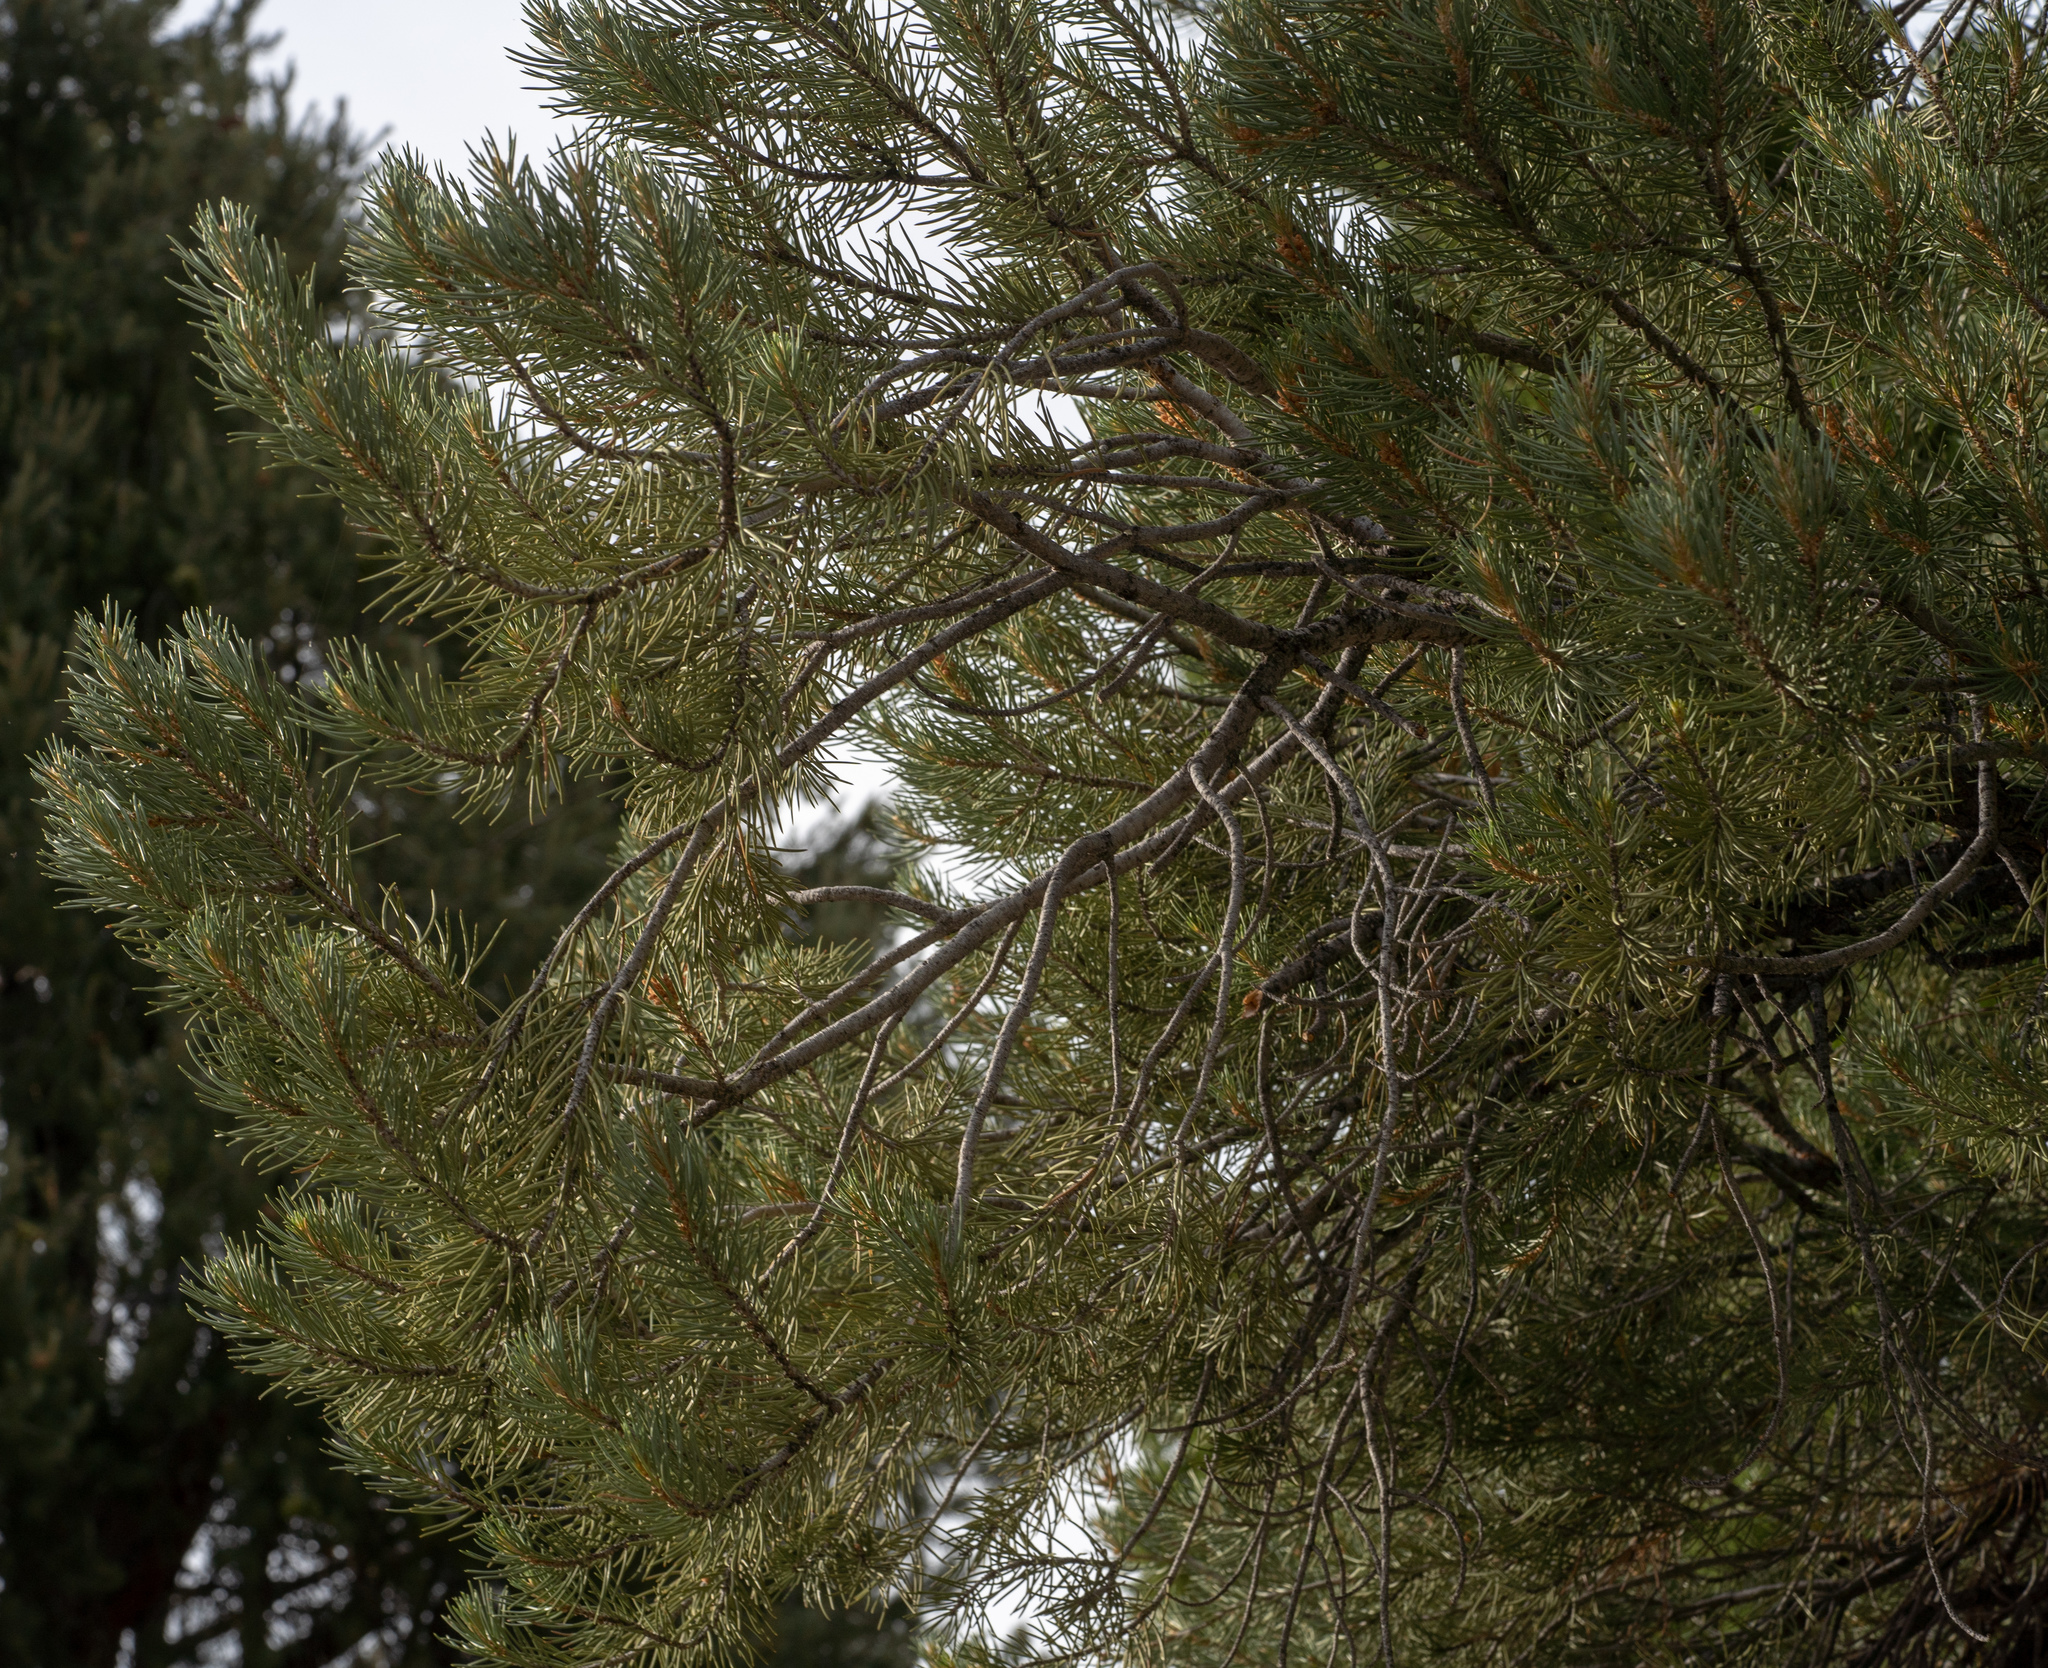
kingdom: Plantae
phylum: Tracheophyta
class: Pinopsida
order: Pinales
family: Pinaceae
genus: Pinus
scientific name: Pinus monophylla
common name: One-leaved nut pine
